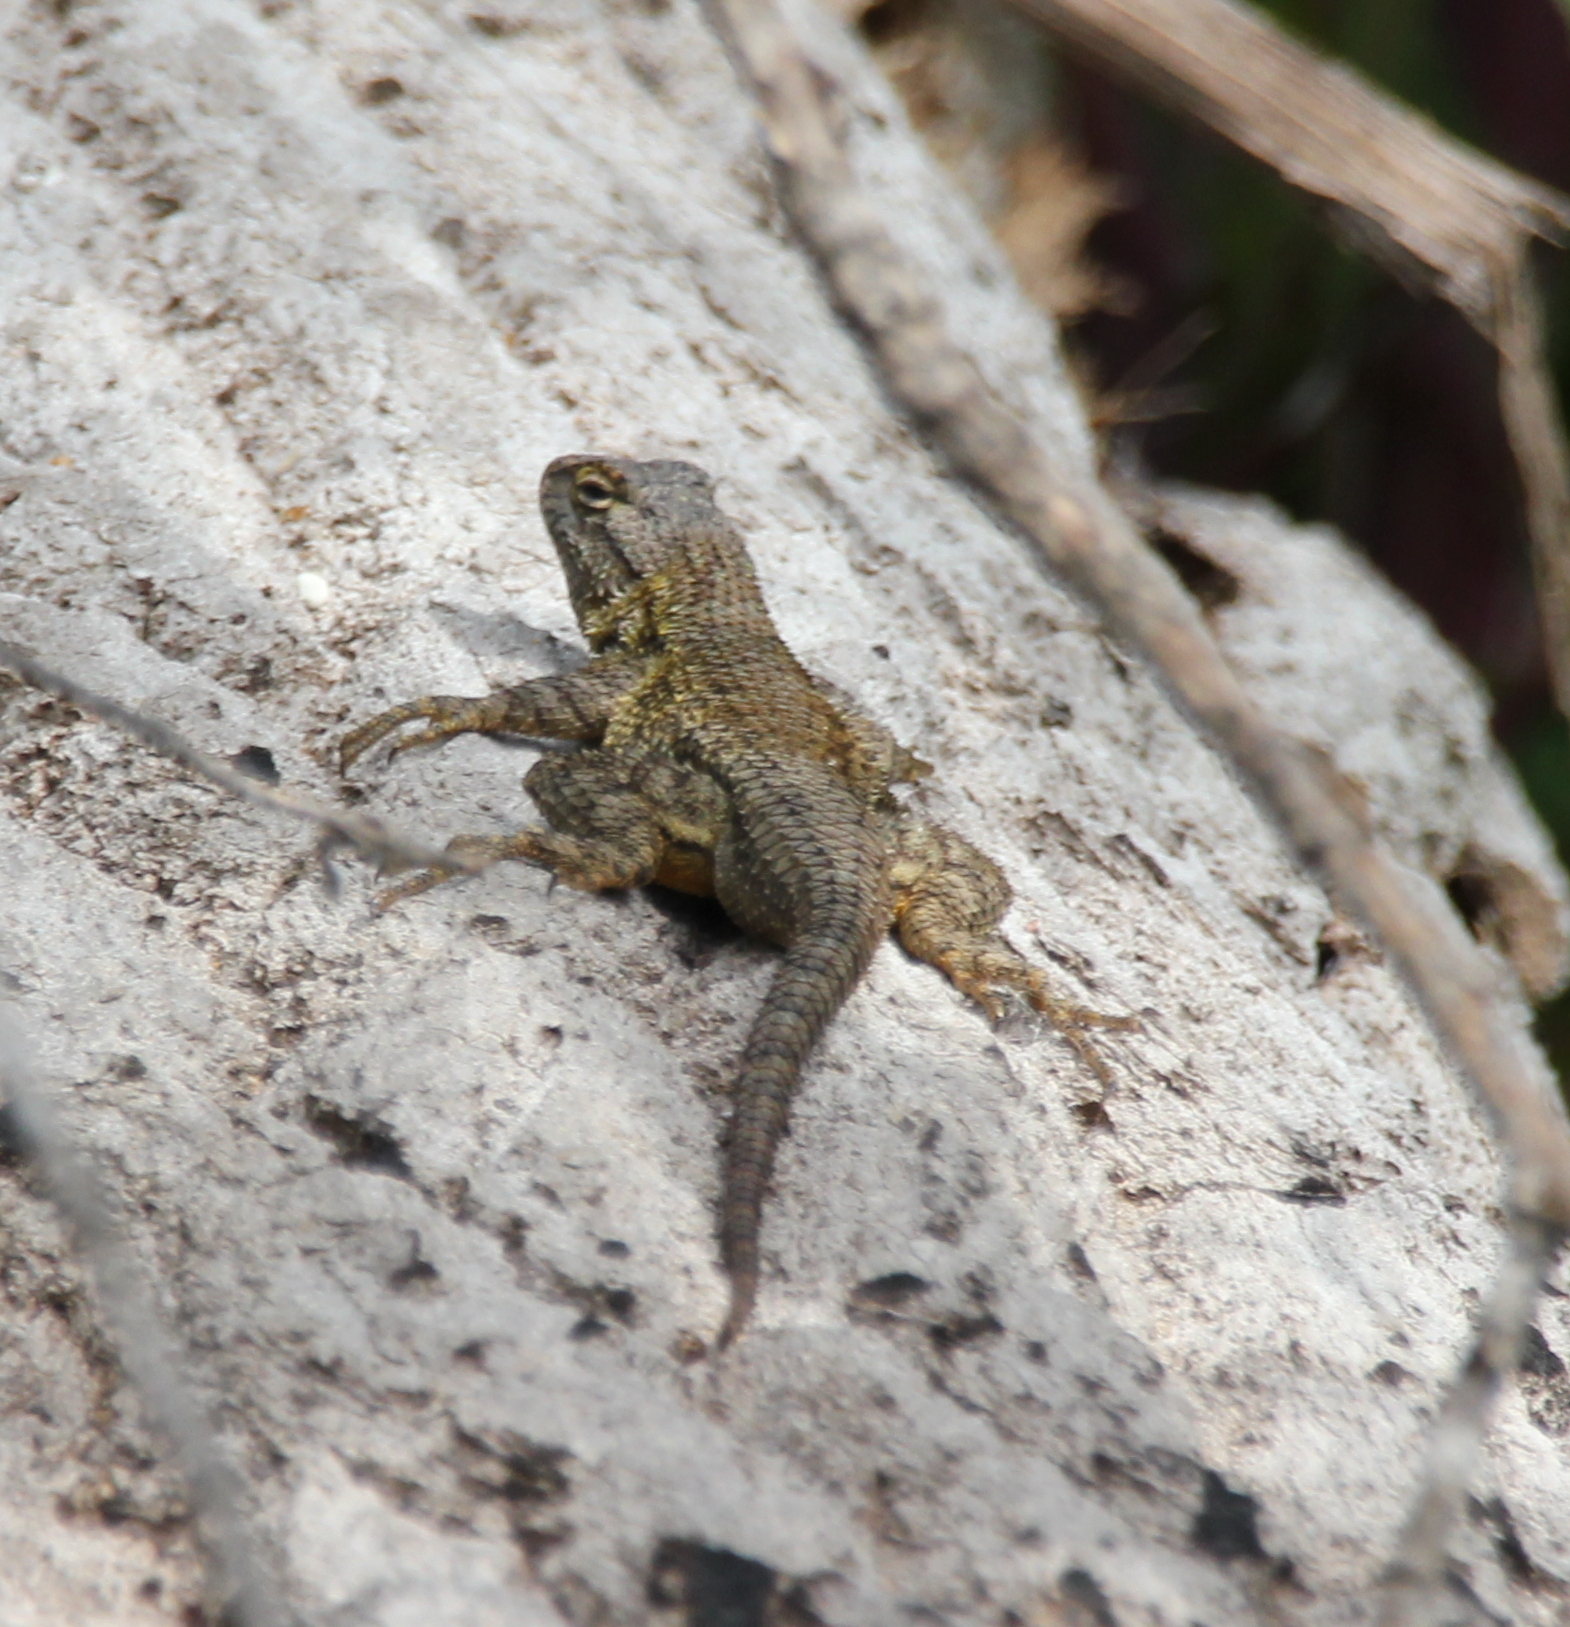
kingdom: Animalia
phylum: Chordata
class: Squamata
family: Phrynosomatidae
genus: Sceloporus
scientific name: Sceloporus occidentalis
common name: Western fence lizard
